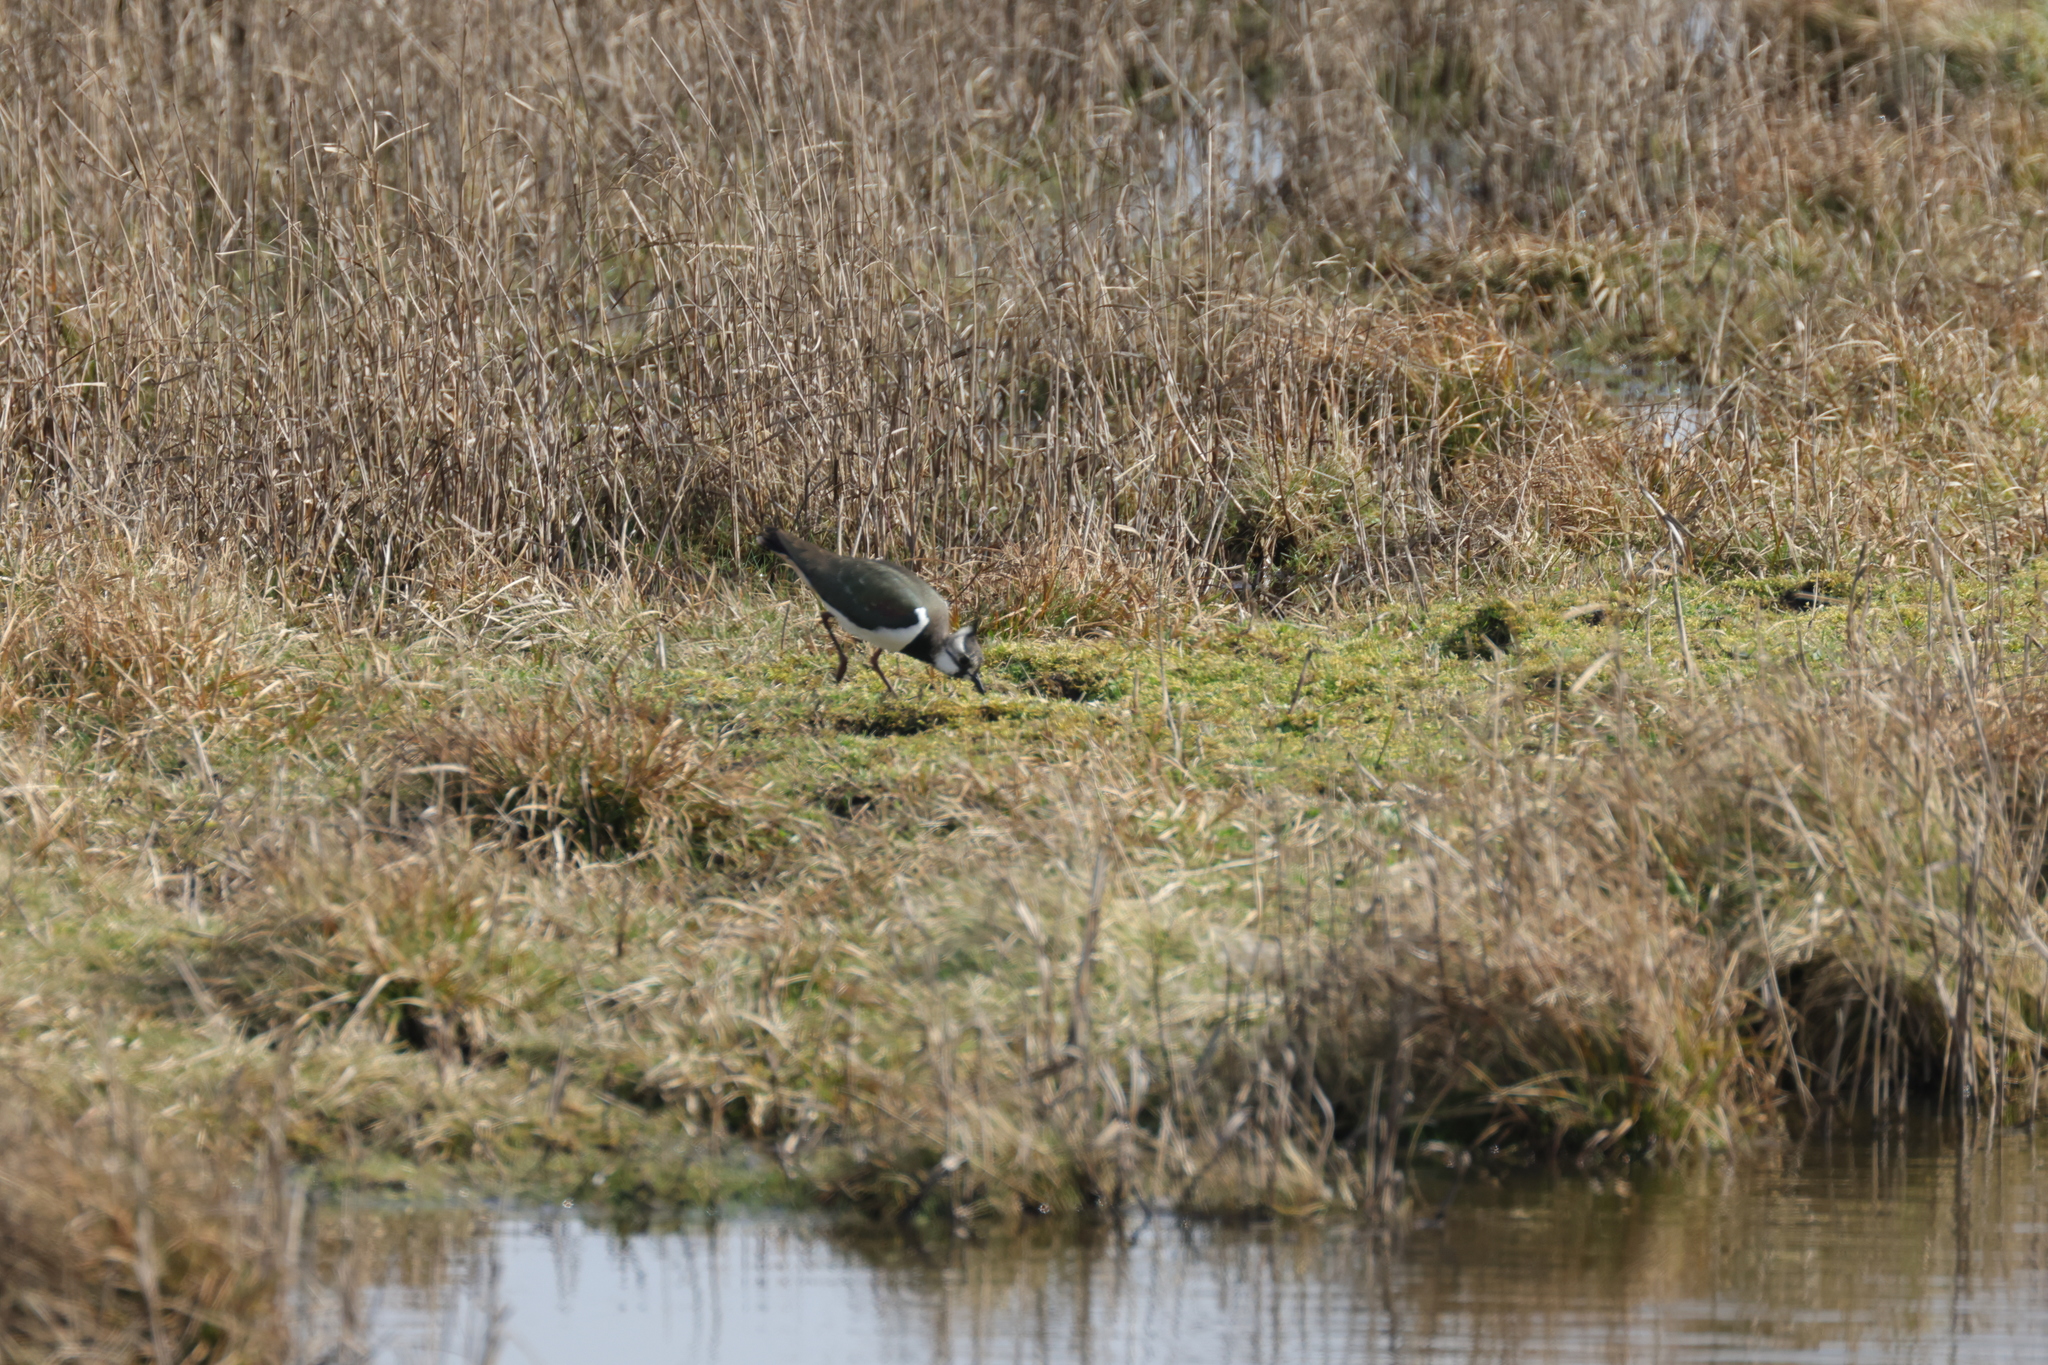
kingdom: Animalia
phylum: Chordata
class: Aves
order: Charadriiformes
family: Charadriidae
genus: Vanellus
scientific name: Vanellus vanellus
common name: Northern lapwing
